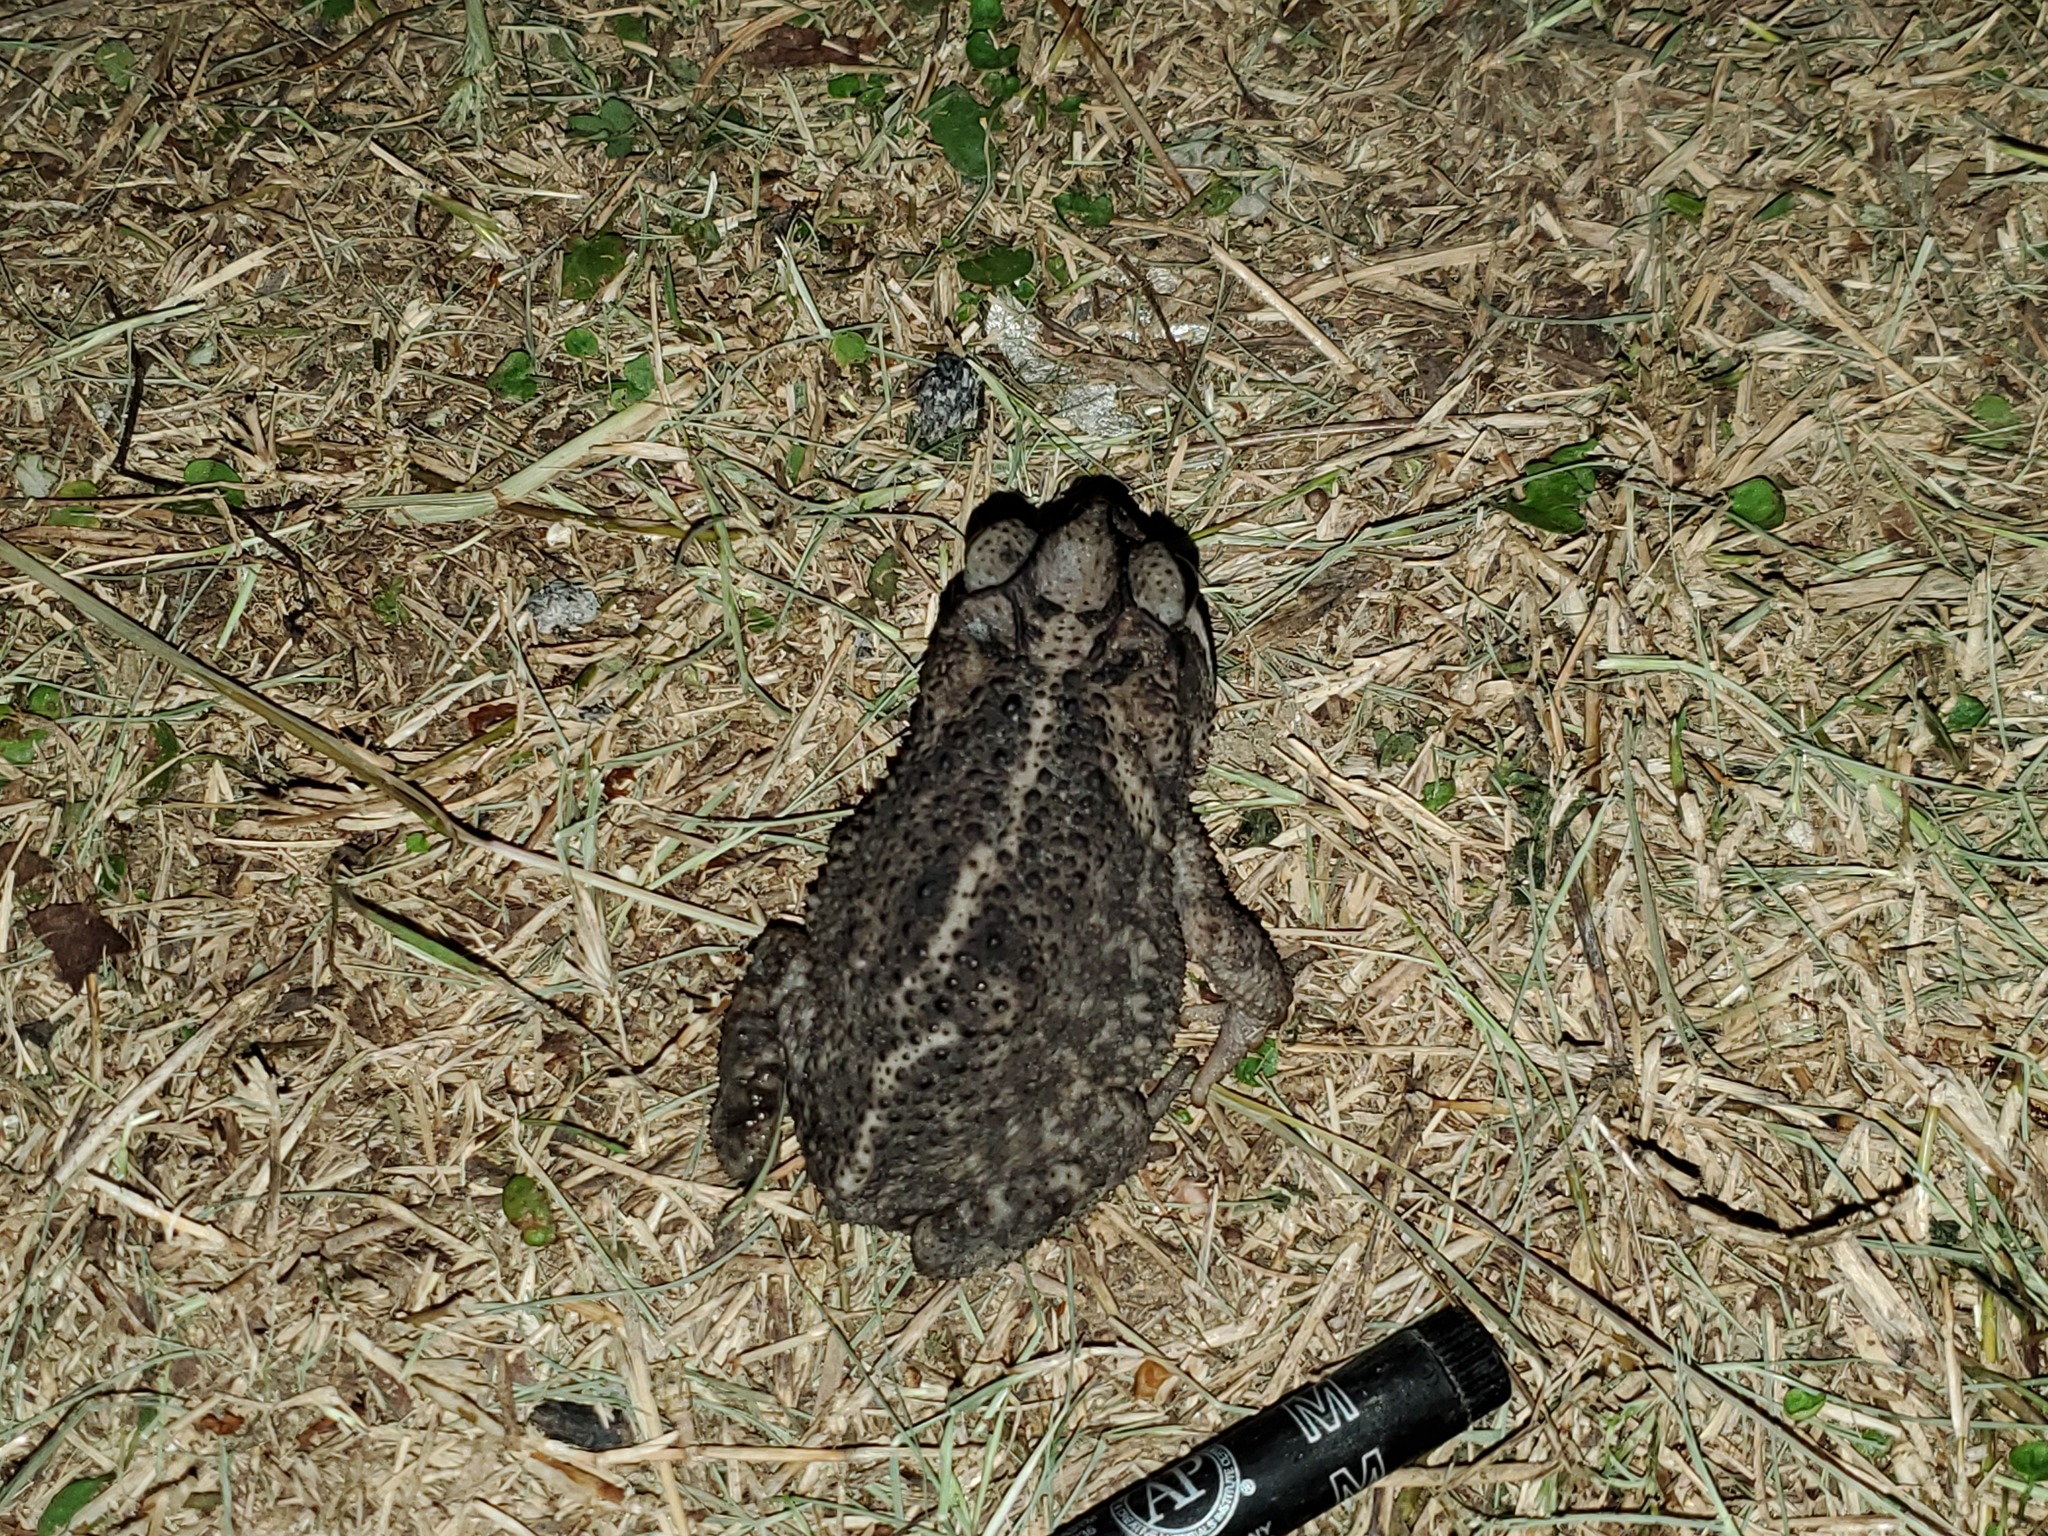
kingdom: Animalia
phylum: Chordata
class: Amphibia
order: Anura
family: Bufonidae
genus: Incilius
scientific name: Incilius nebulifer
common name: Gulf coast toad
